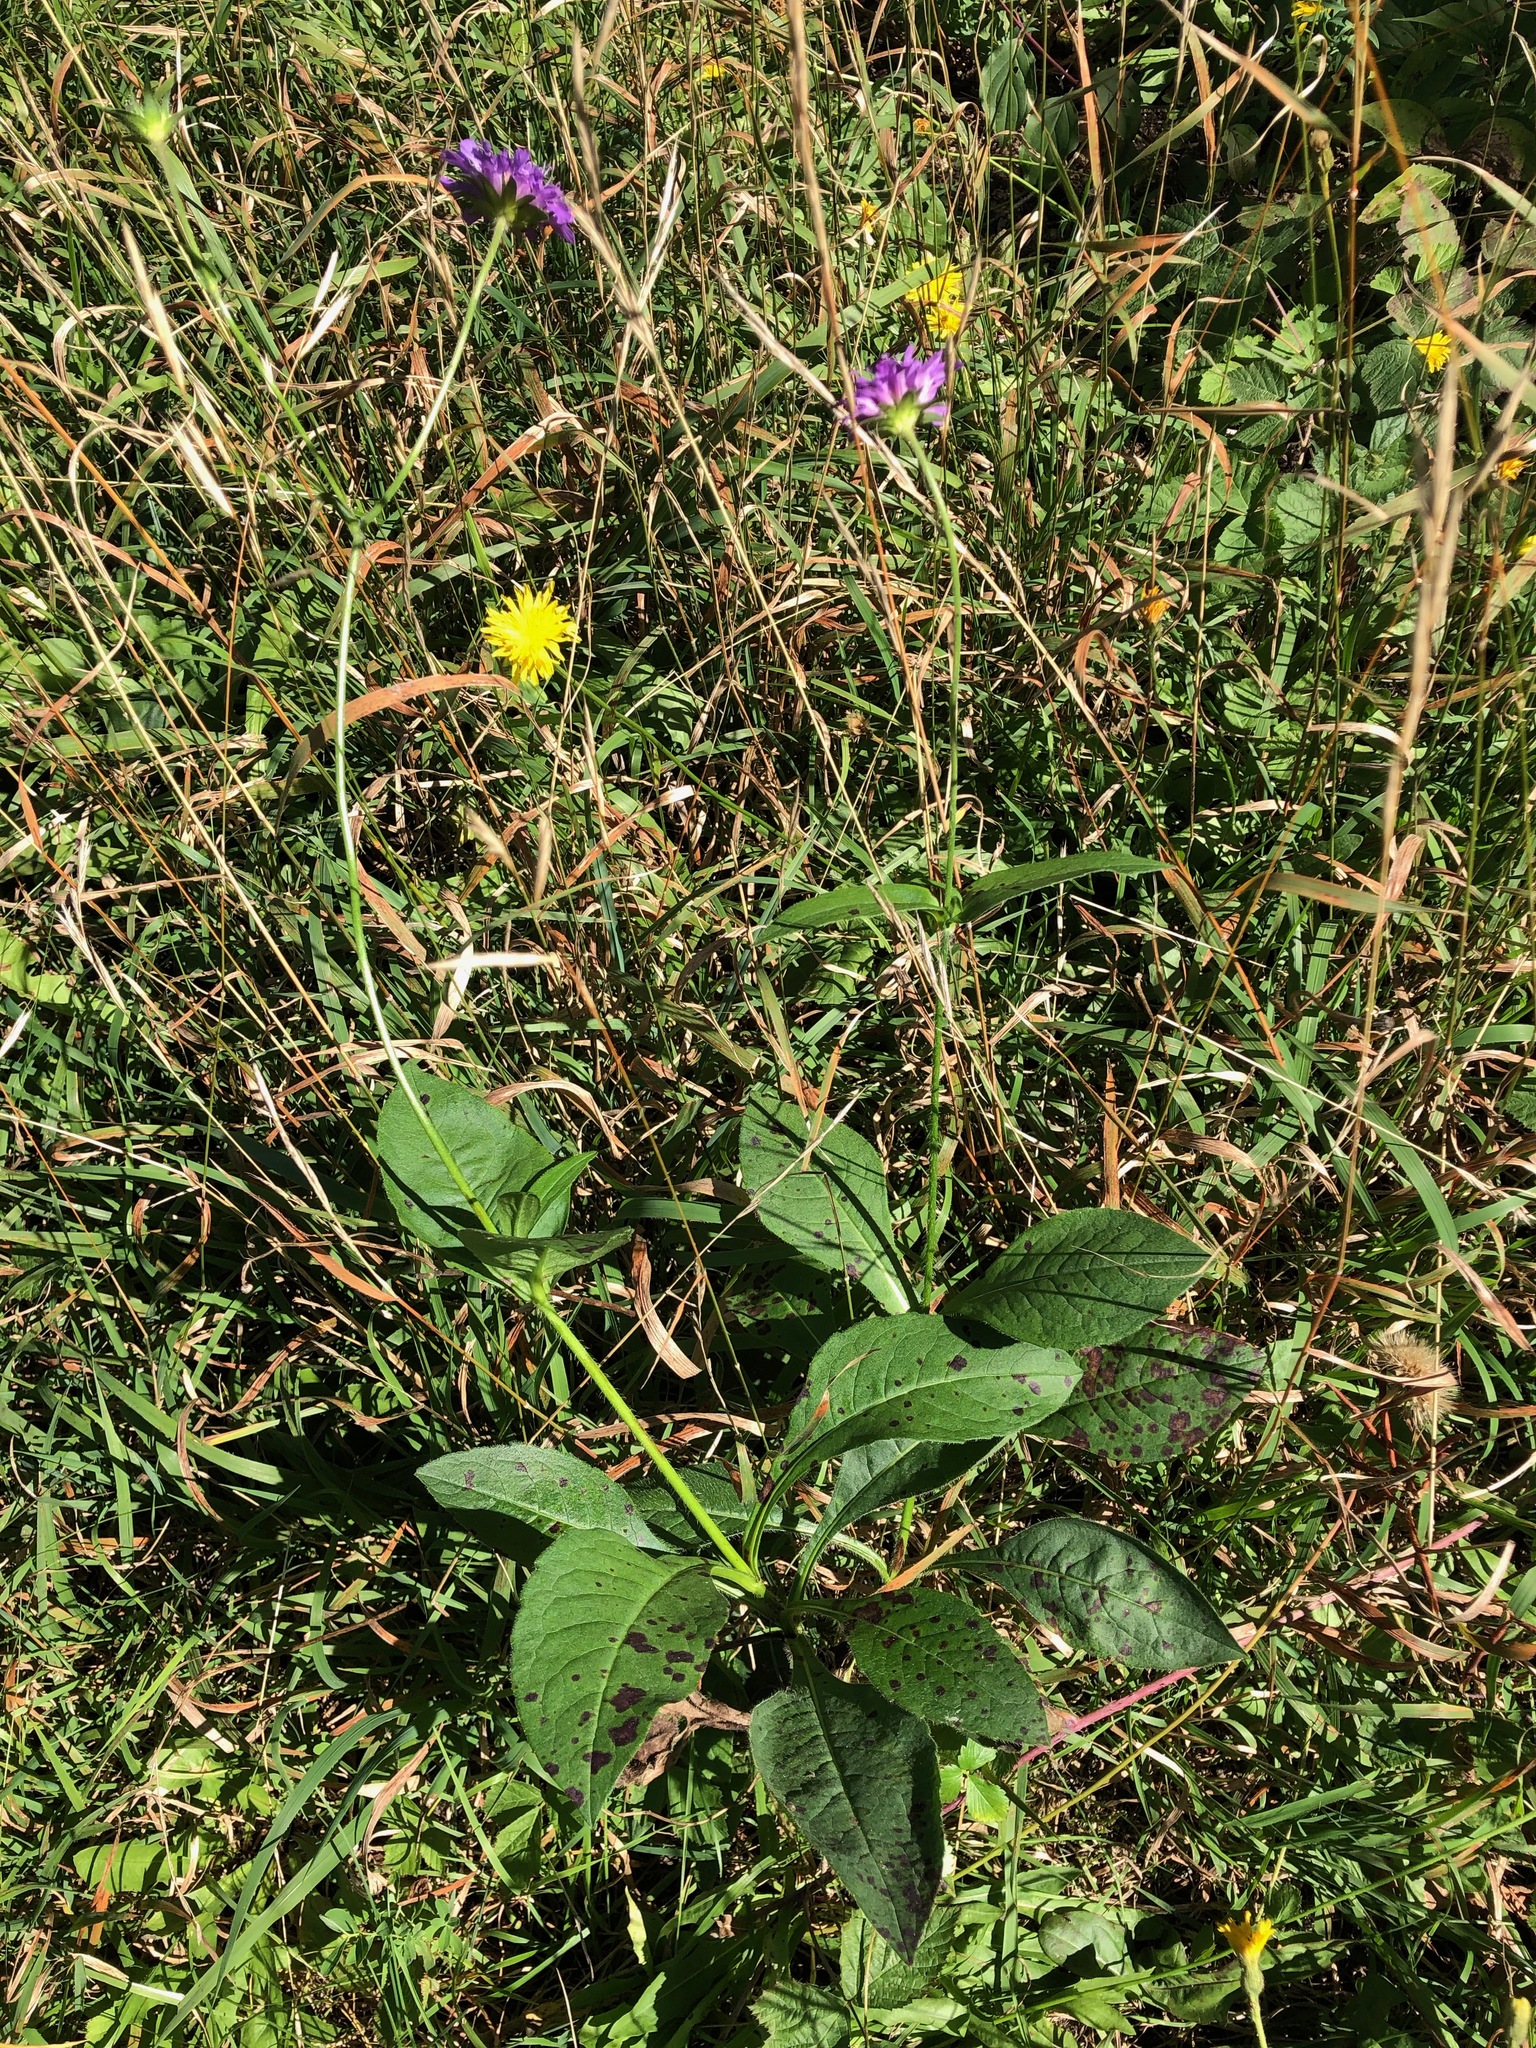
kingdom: Plantae
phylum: Tracheophyta
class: Magnoliopsida
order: Dipsacales
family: Caprifoliaceae
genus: Knautia
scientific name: Knautia dipsacifolia
